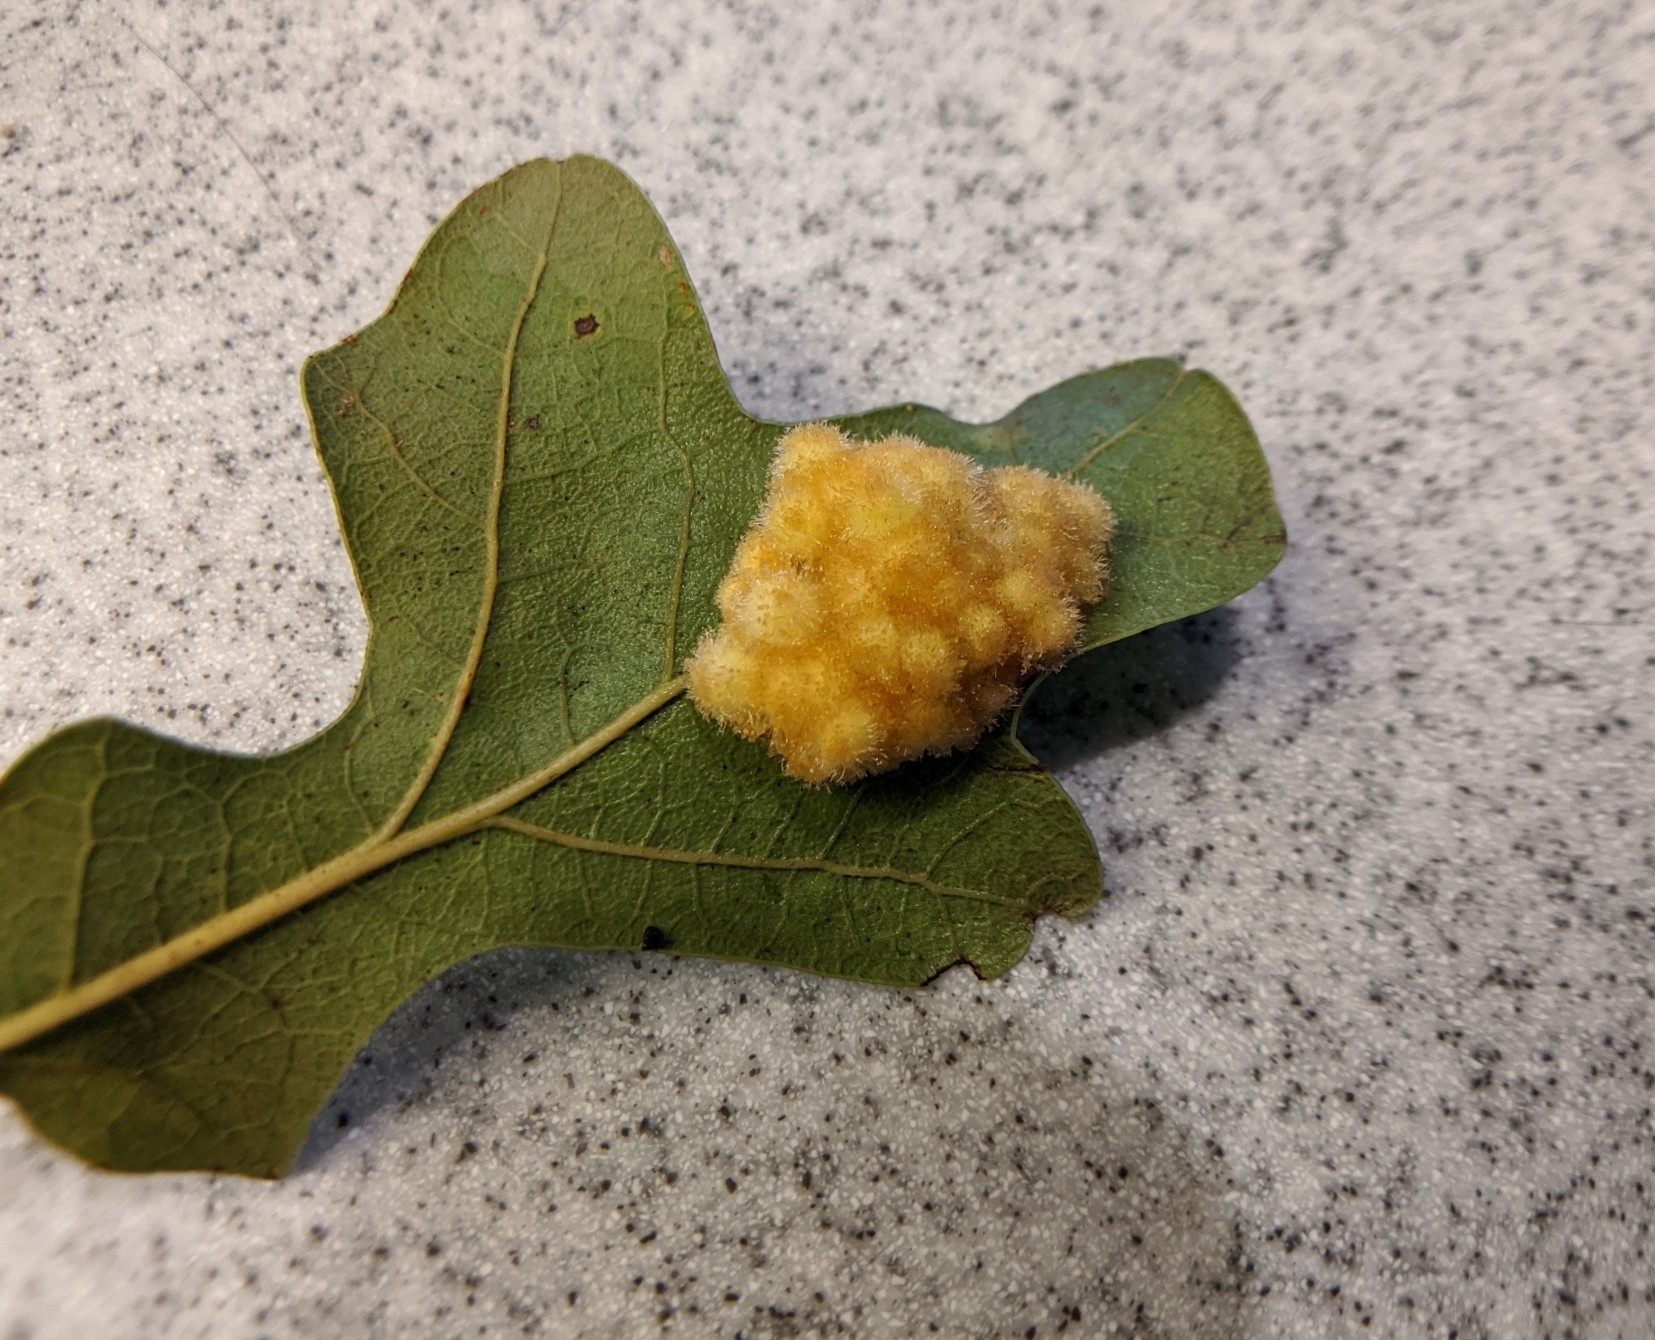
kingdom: Animalia
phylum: Arthropoda
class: Insecta
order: Hymenoptera
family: Cynipidae
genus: Andricus
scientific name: Andricus
